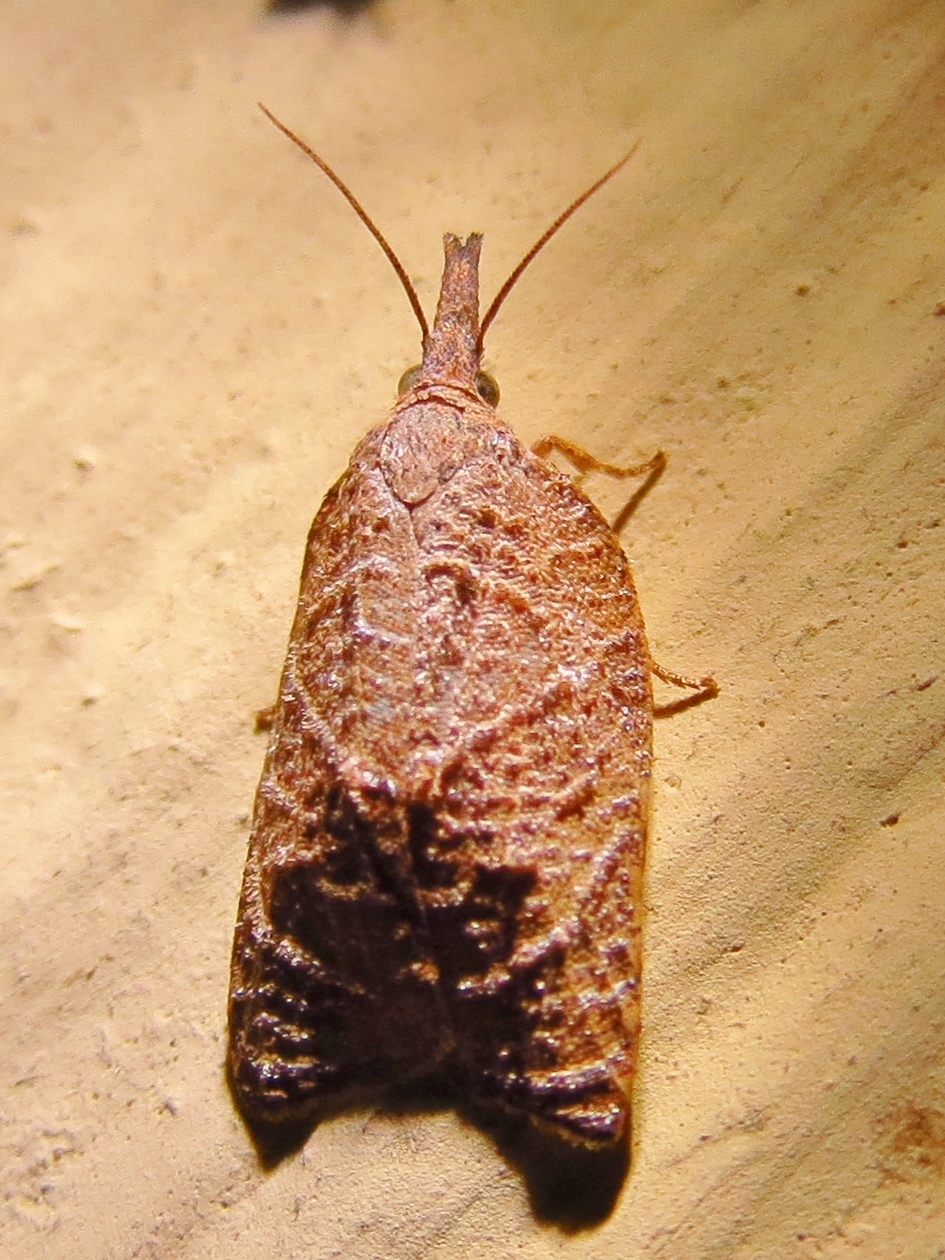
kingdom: Animalia
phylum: Arthropoda
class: Insecta
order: Lepidoptera
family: Tortricidae
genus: Platynota
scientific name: Platynota rostrana
